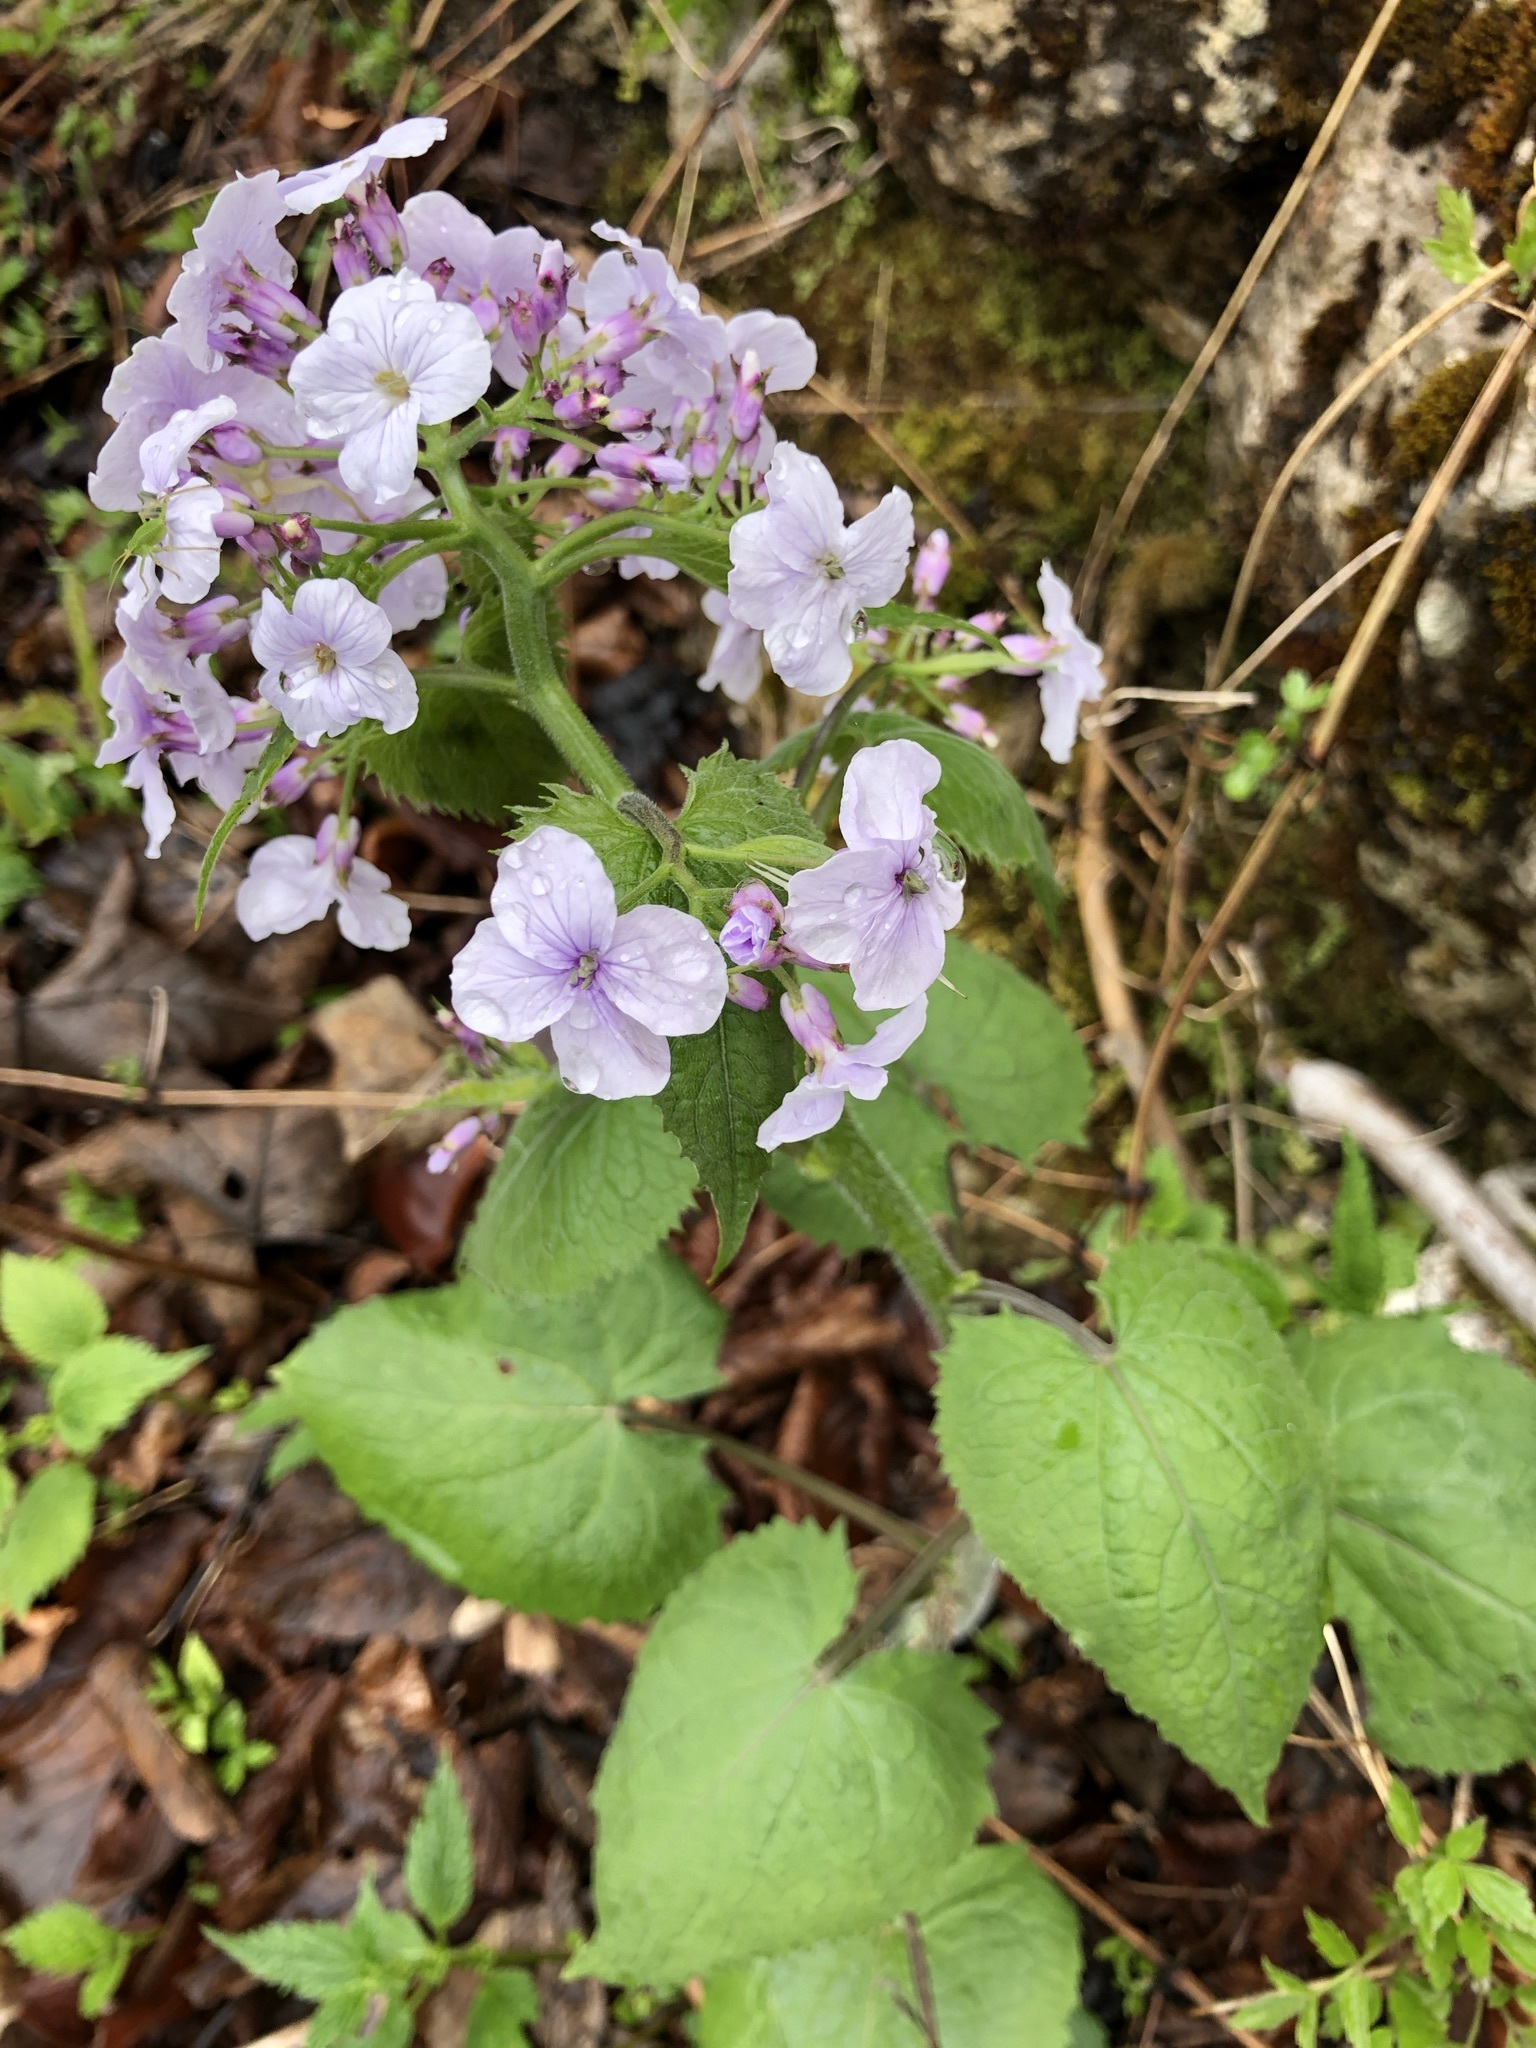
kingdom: Plantae
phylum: Tracheophyta
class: Magnoliopsida
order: Brassicales
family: Brassicaceae
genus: Lunaria
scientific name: Lunaria rediviva
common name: Perennial honesty
